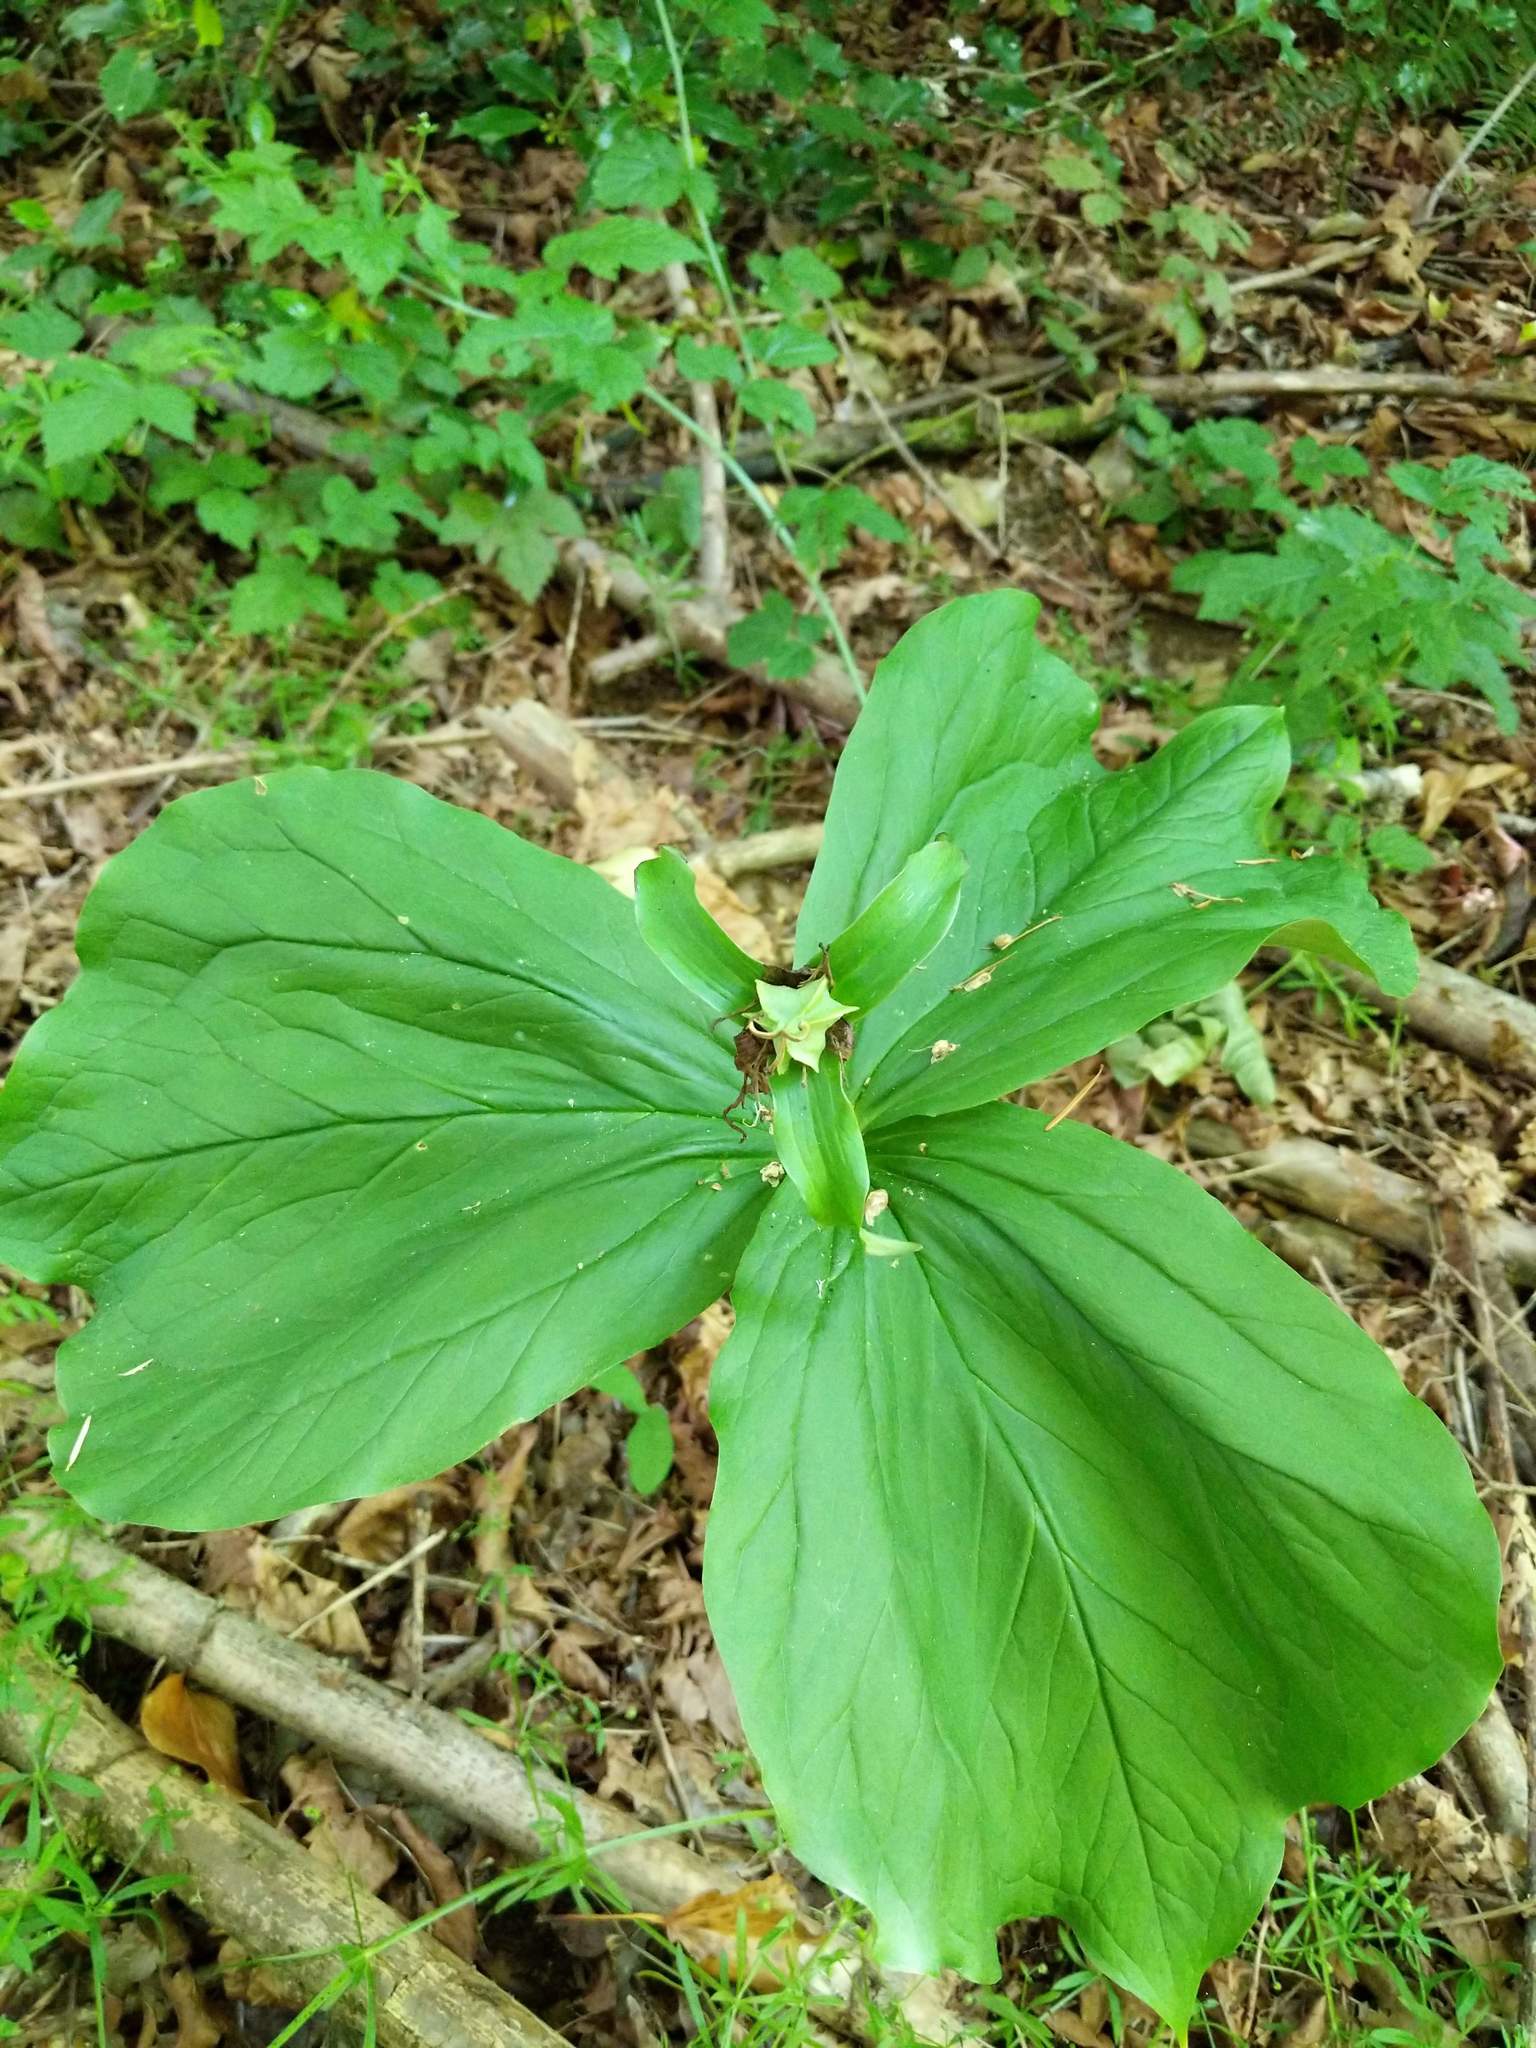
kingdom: Plantae
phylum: Tracheophyta
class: Liliopsida
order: Liliales
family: Melanthiaceae
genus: Trillium
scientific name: Trillium ovatum
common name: Pacific trillium
